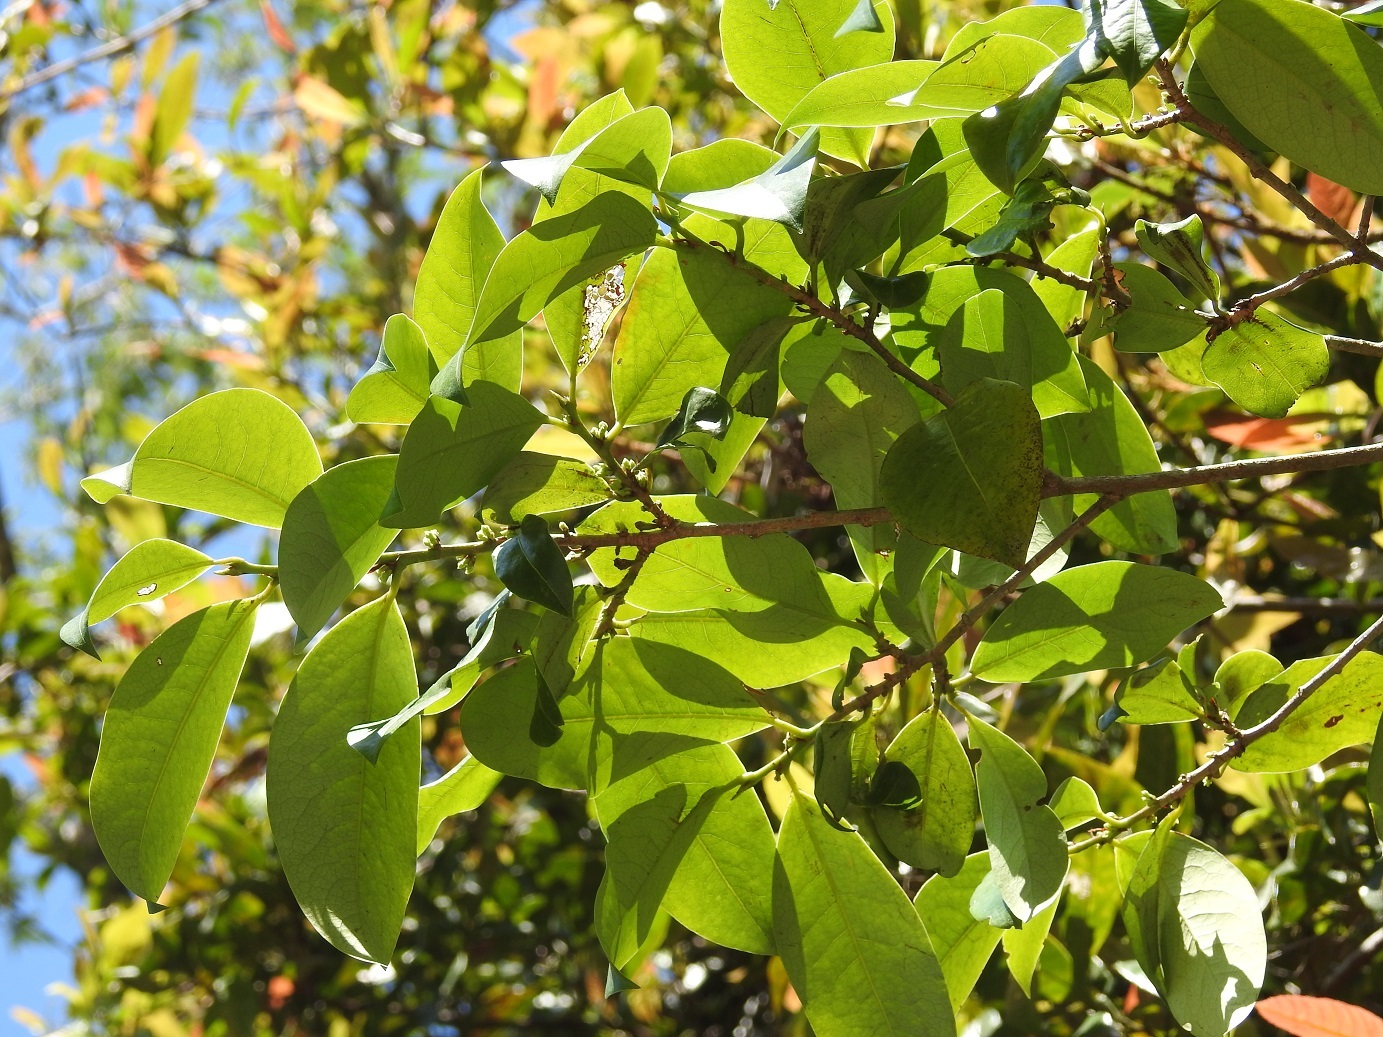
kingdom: Plantae
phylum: Tracheophyta
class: Magnoliopsida
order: Malpighiales
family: Erythroxylaceae
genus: Erythroxylum
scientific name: Erythroxylum macrophyllum
